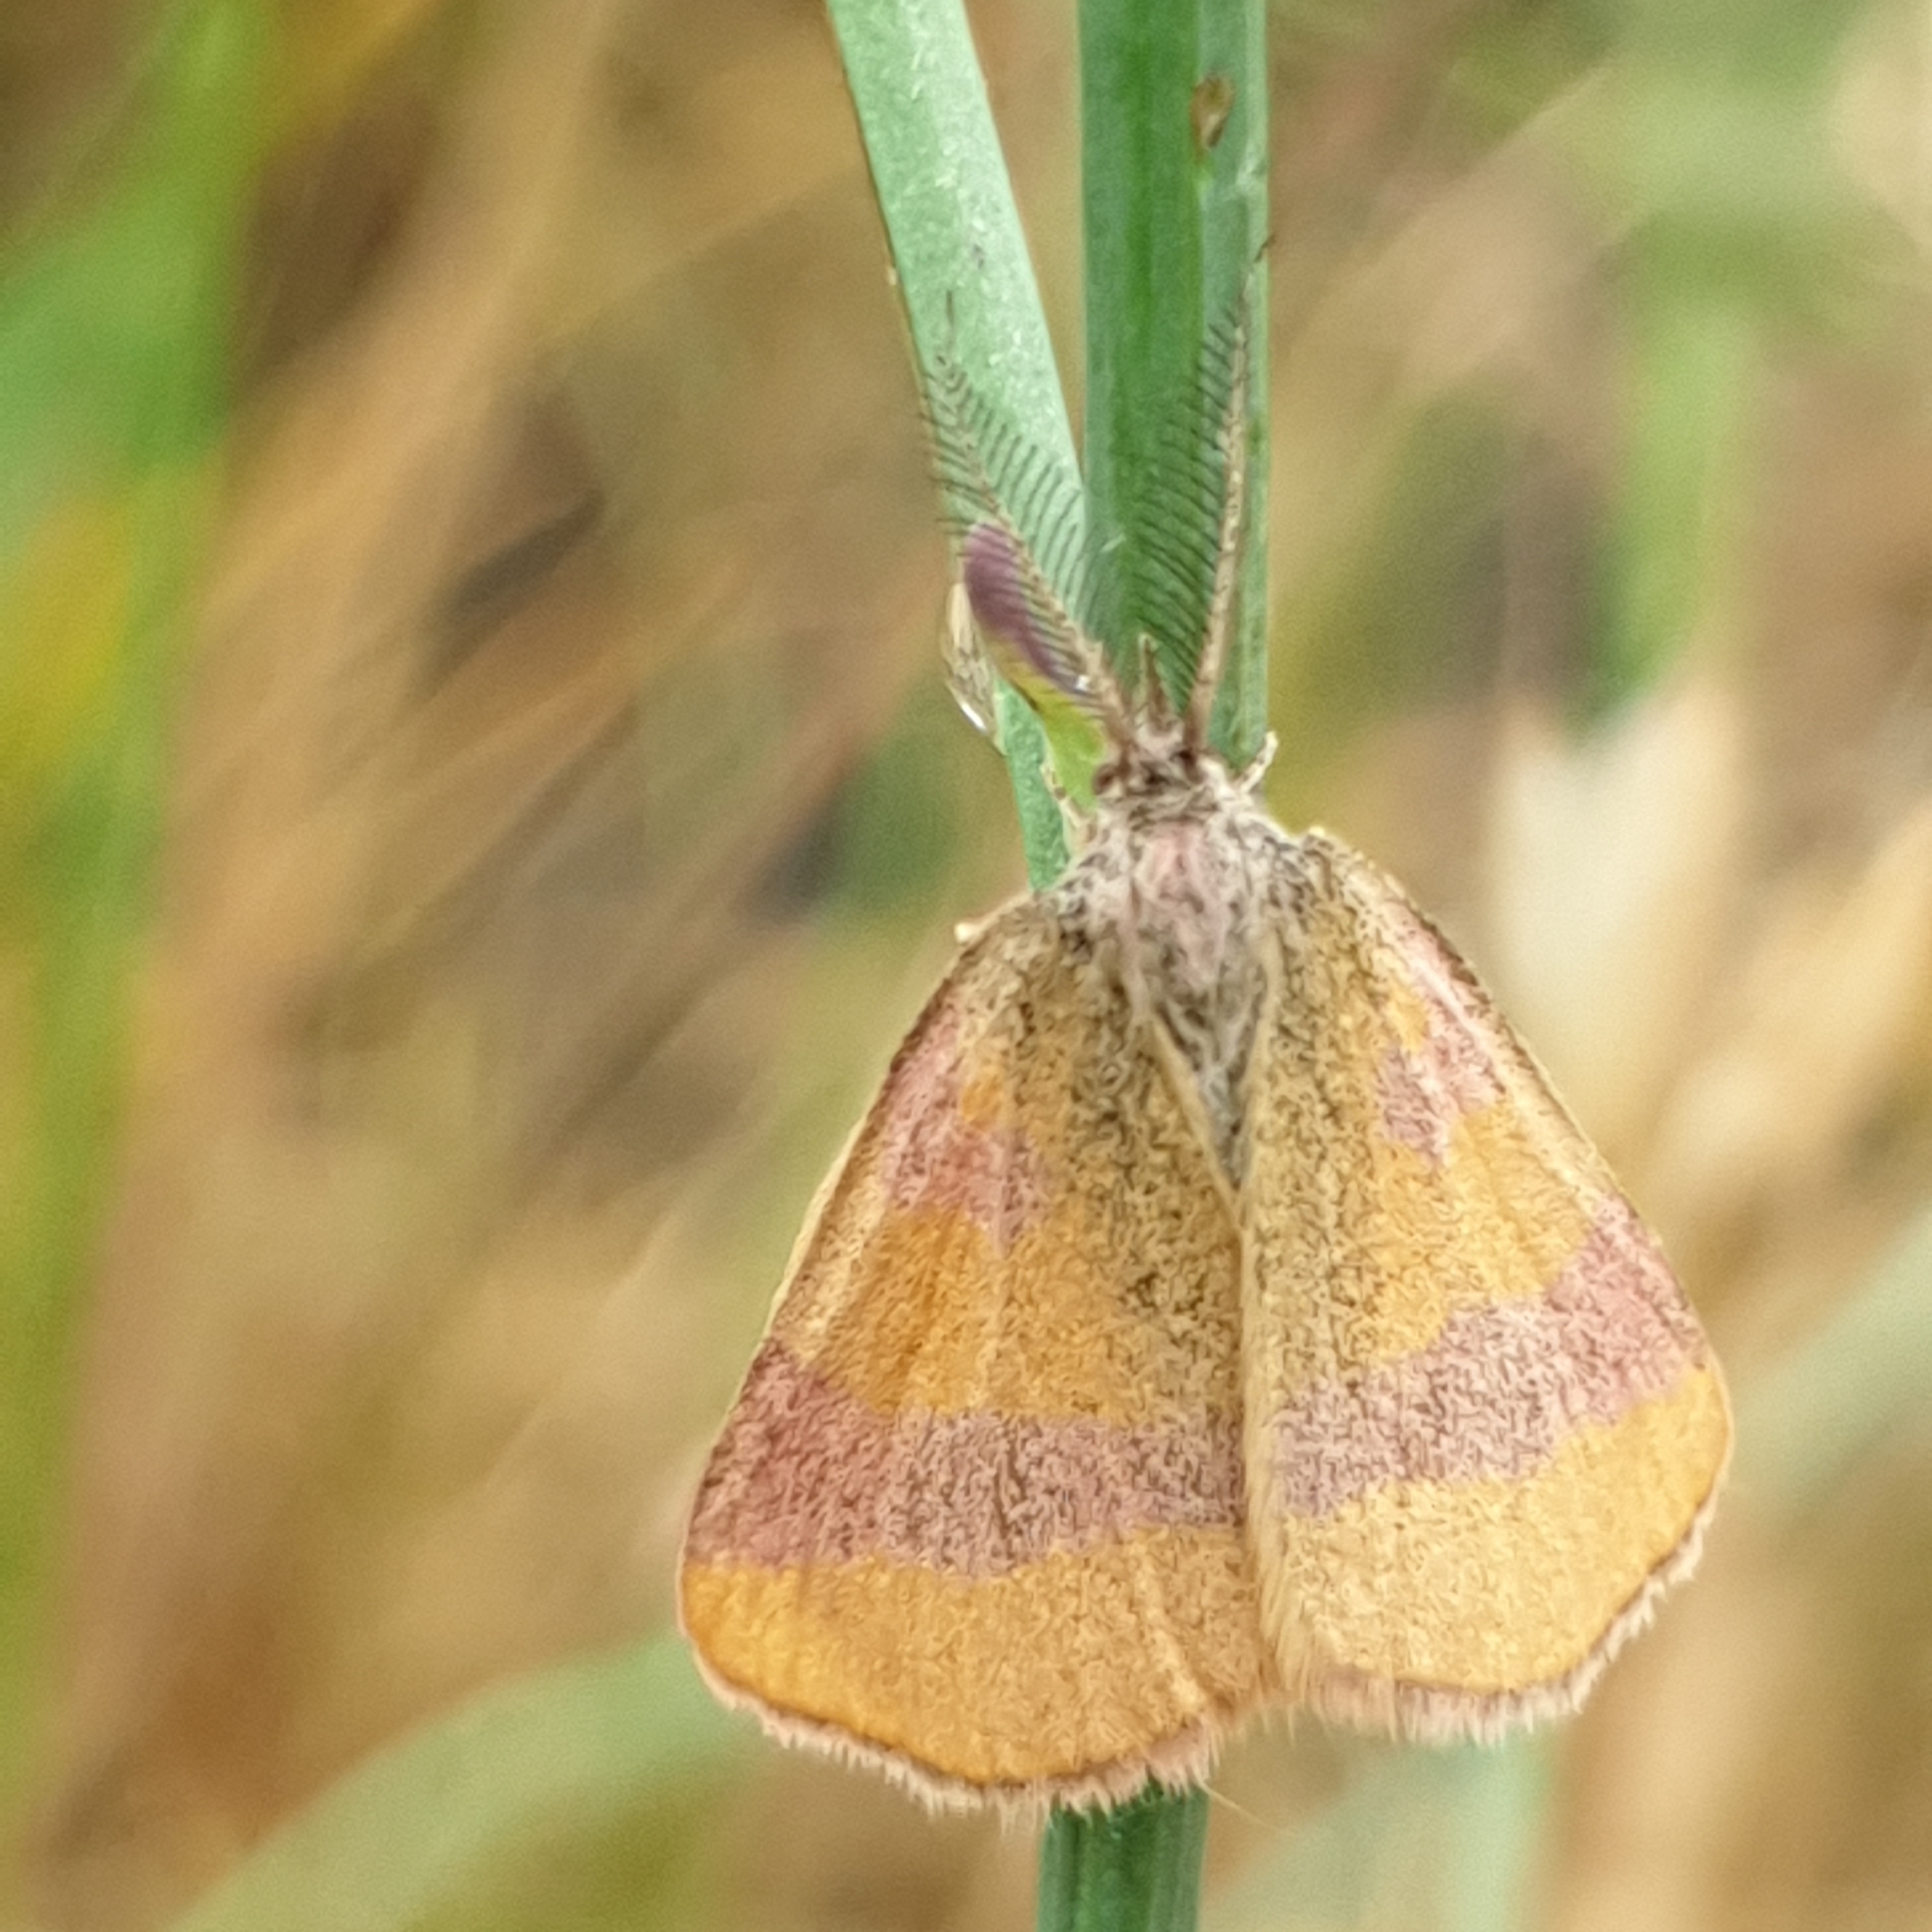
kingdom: Animalia
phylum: Arthropoda
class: Insecta
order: Lepidoptera
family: Geometridae
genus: Lythria
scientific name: Lythria cruentaria
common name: Purple-barred yellow
